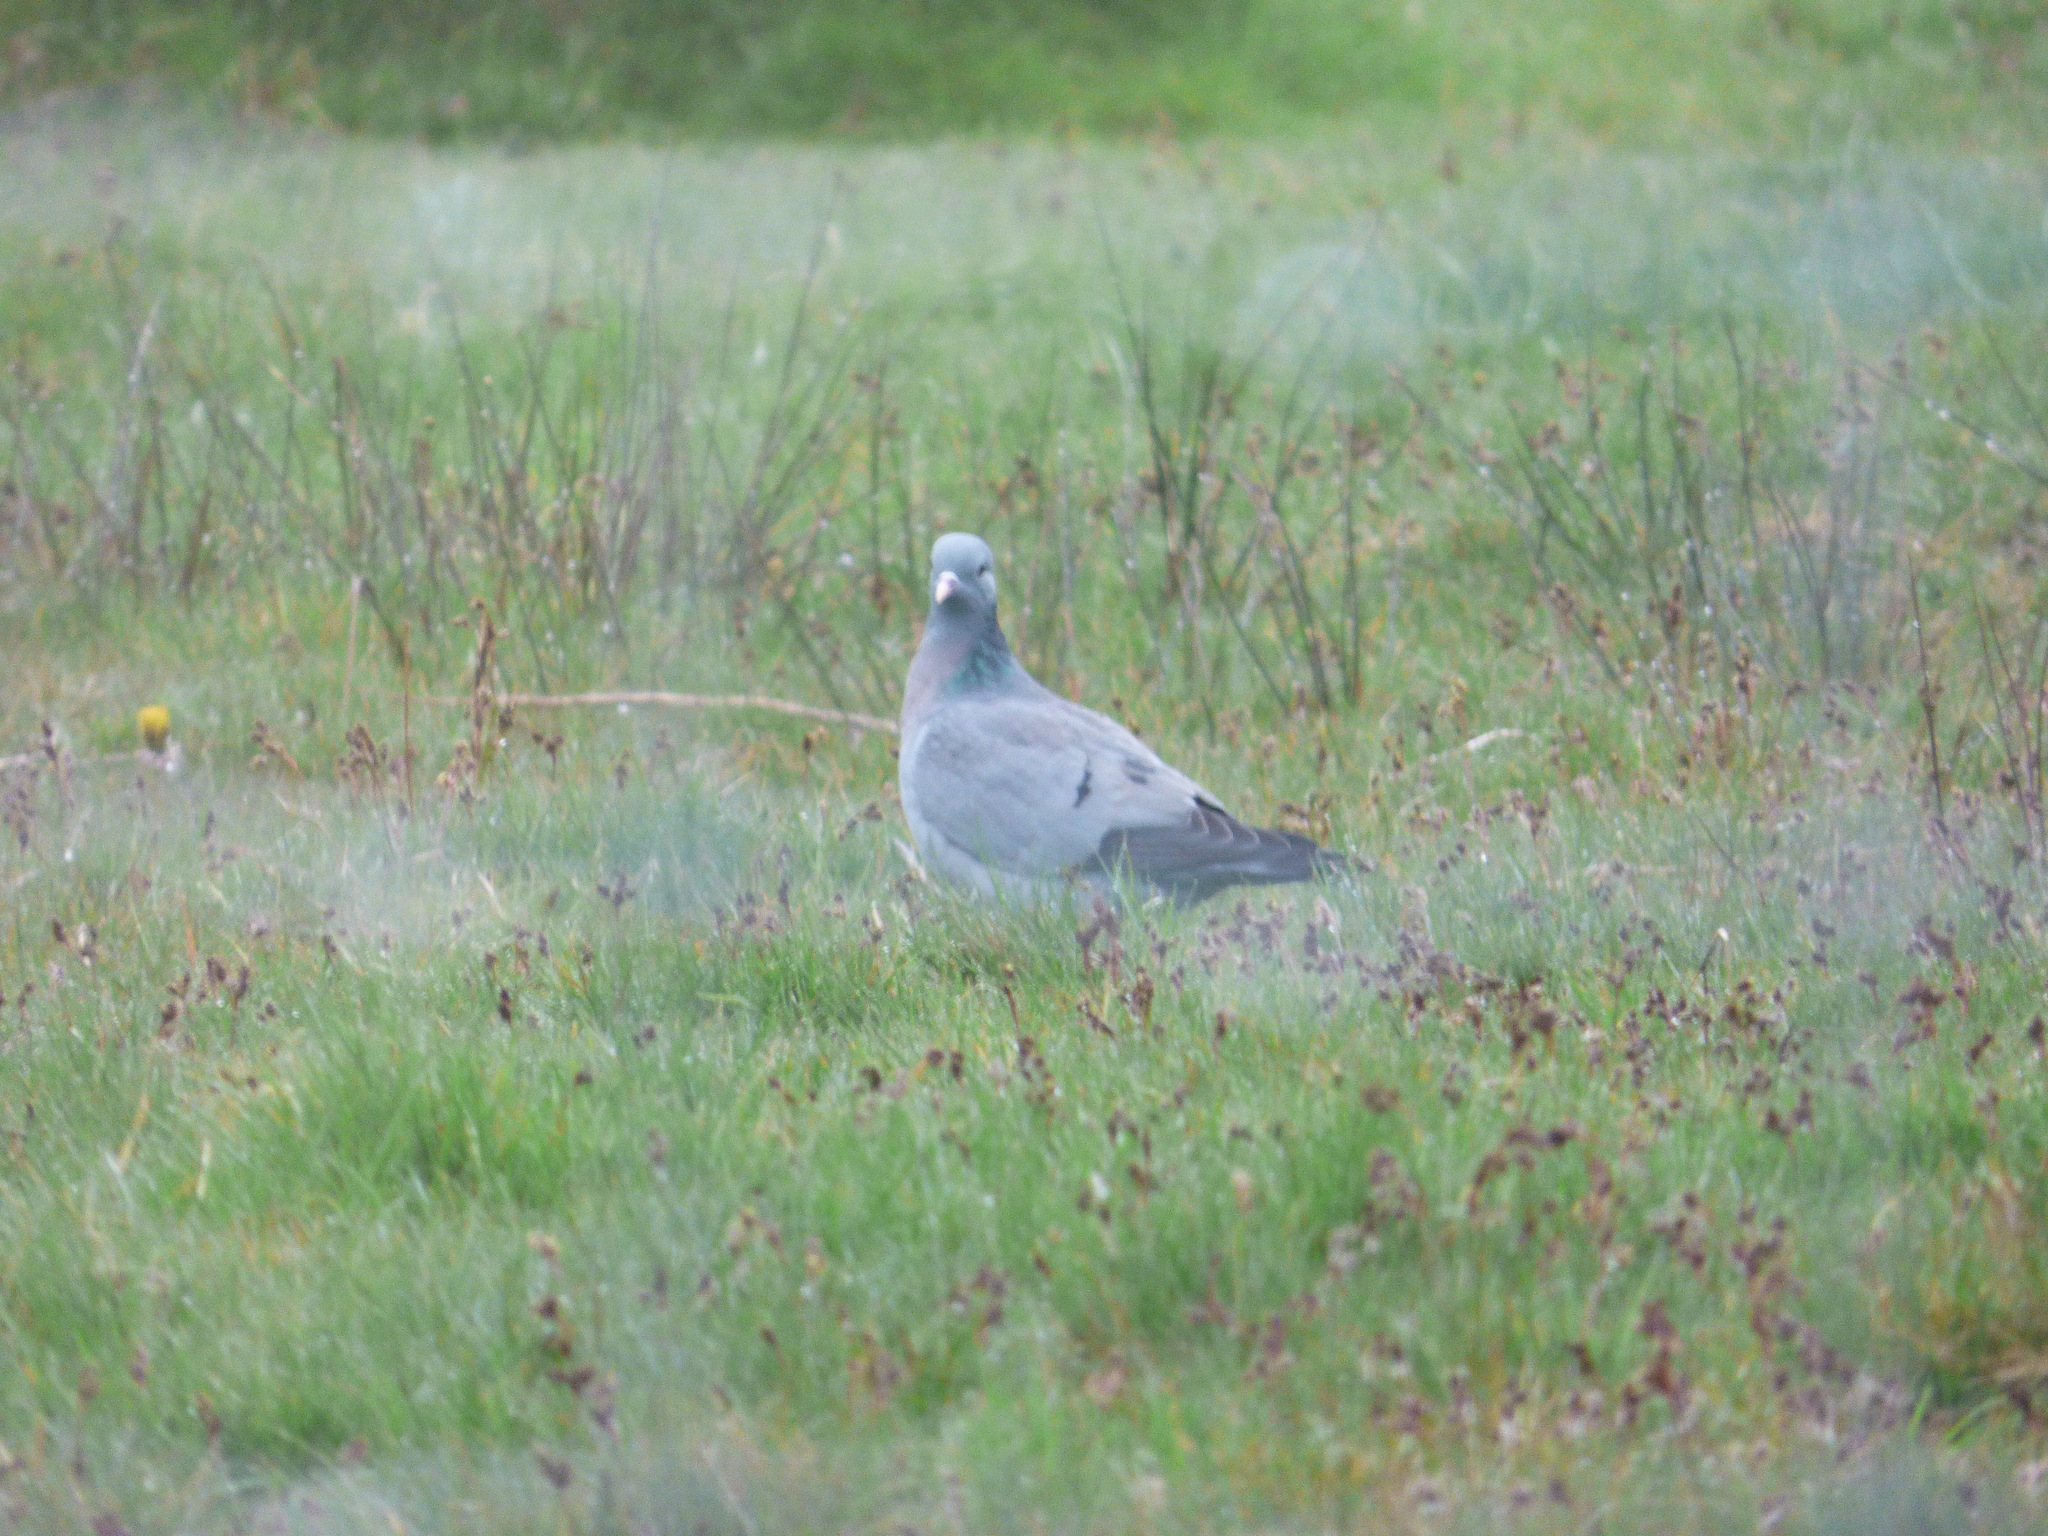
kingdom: Animalia
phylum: Chordata
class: Aves
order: Columbiformes
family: Columbidae
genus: Columba
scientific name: Columba oenas
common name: Stock dove
